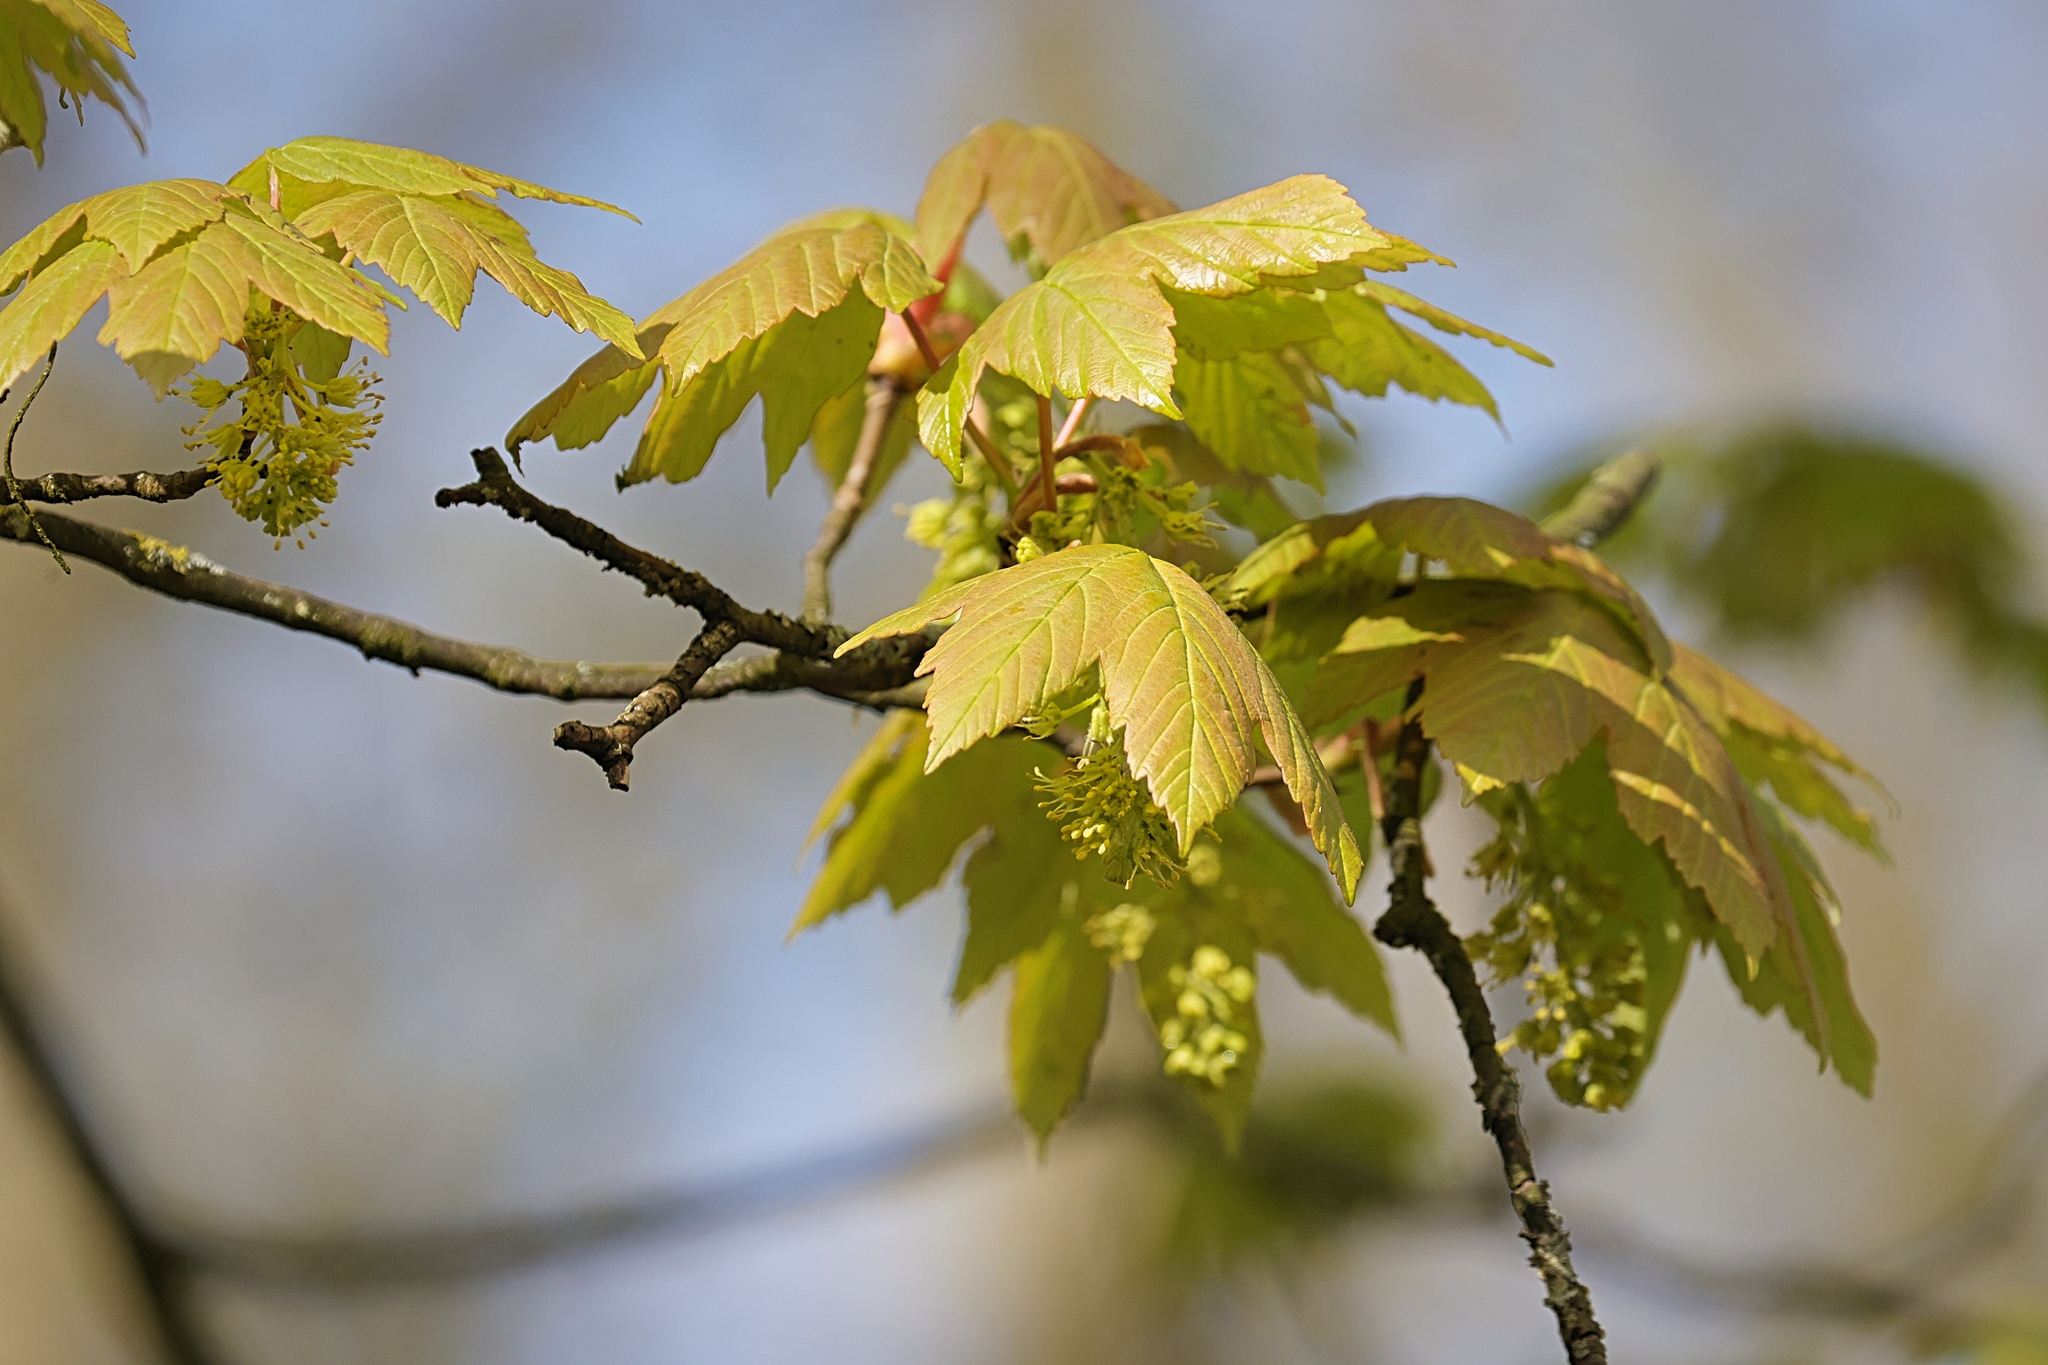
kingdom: Plantae
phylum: Tracheophyta
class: Magnoliopsida
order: Sapindales
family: Sapindaceae
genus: Acer
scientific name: Acer pseudoplatanus
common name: Sycamore
